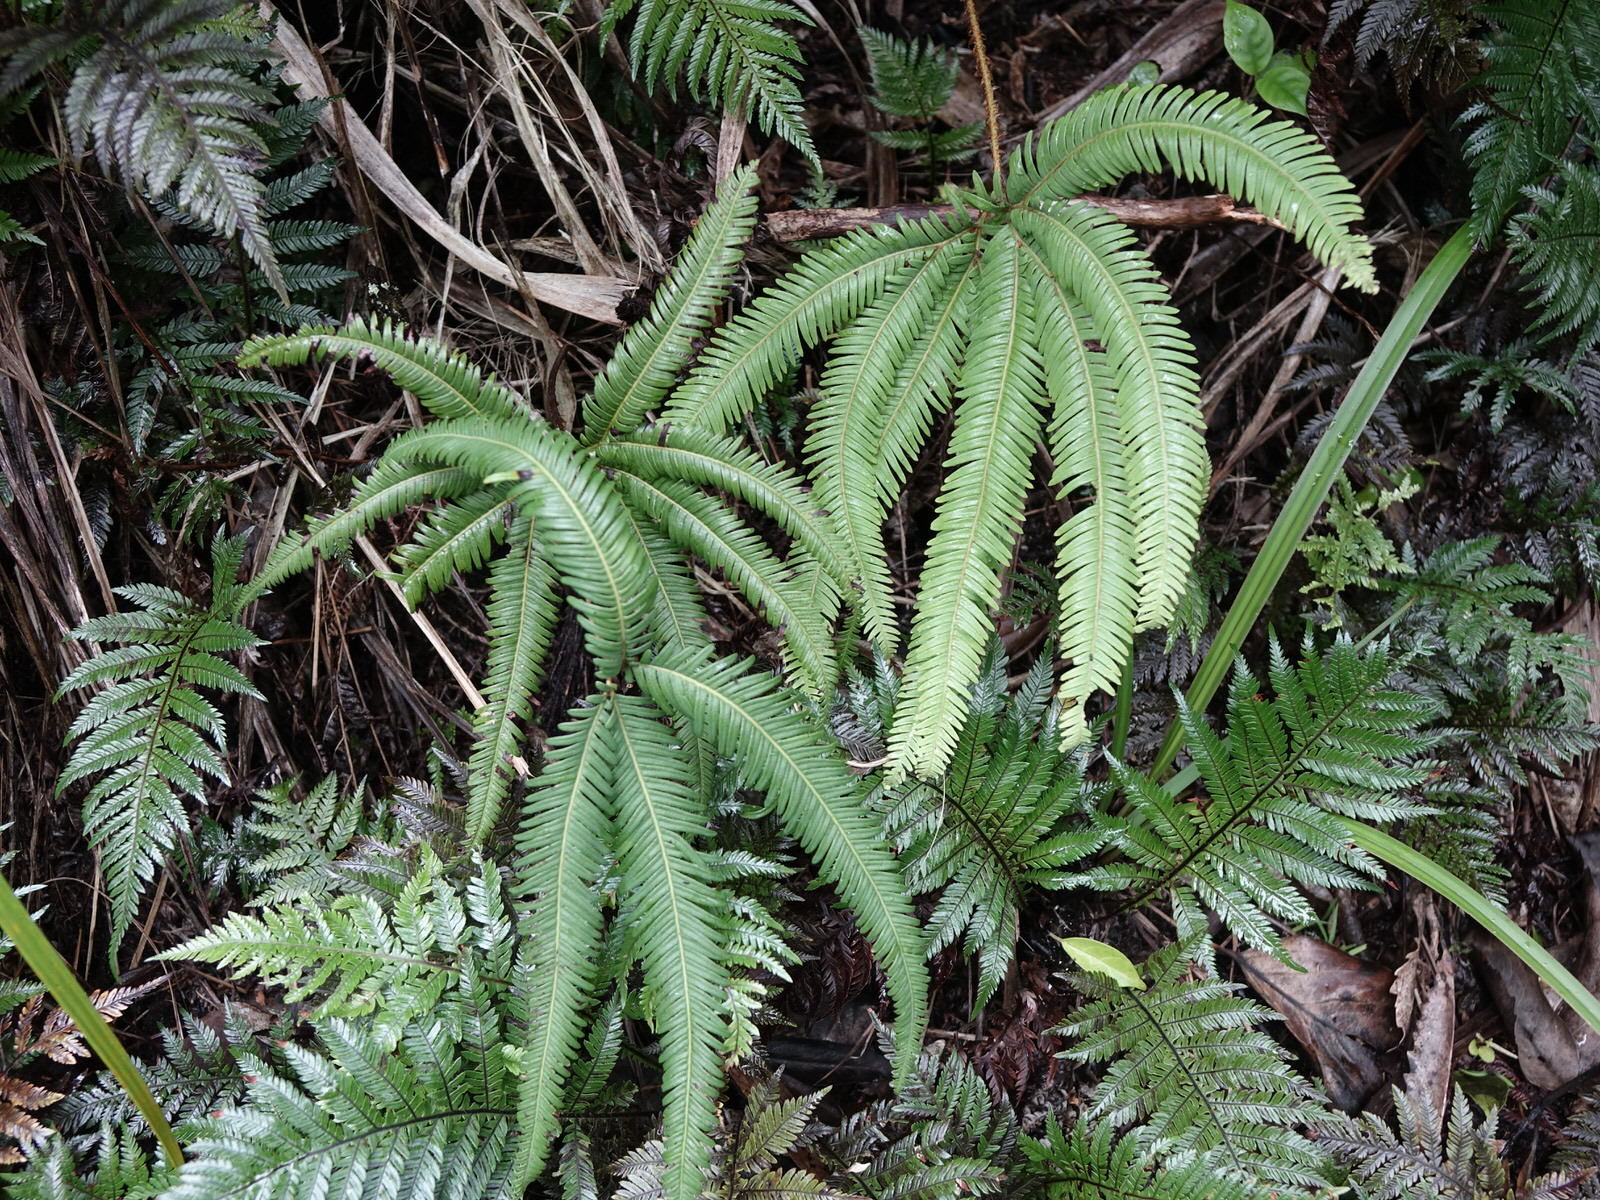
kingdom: Plantae
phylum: Tracheophyta
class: Polypodiopsida
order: Gleicheniales
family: Gleicheniaceae
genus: Sticherus
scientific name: Sticherus cunninghamii
